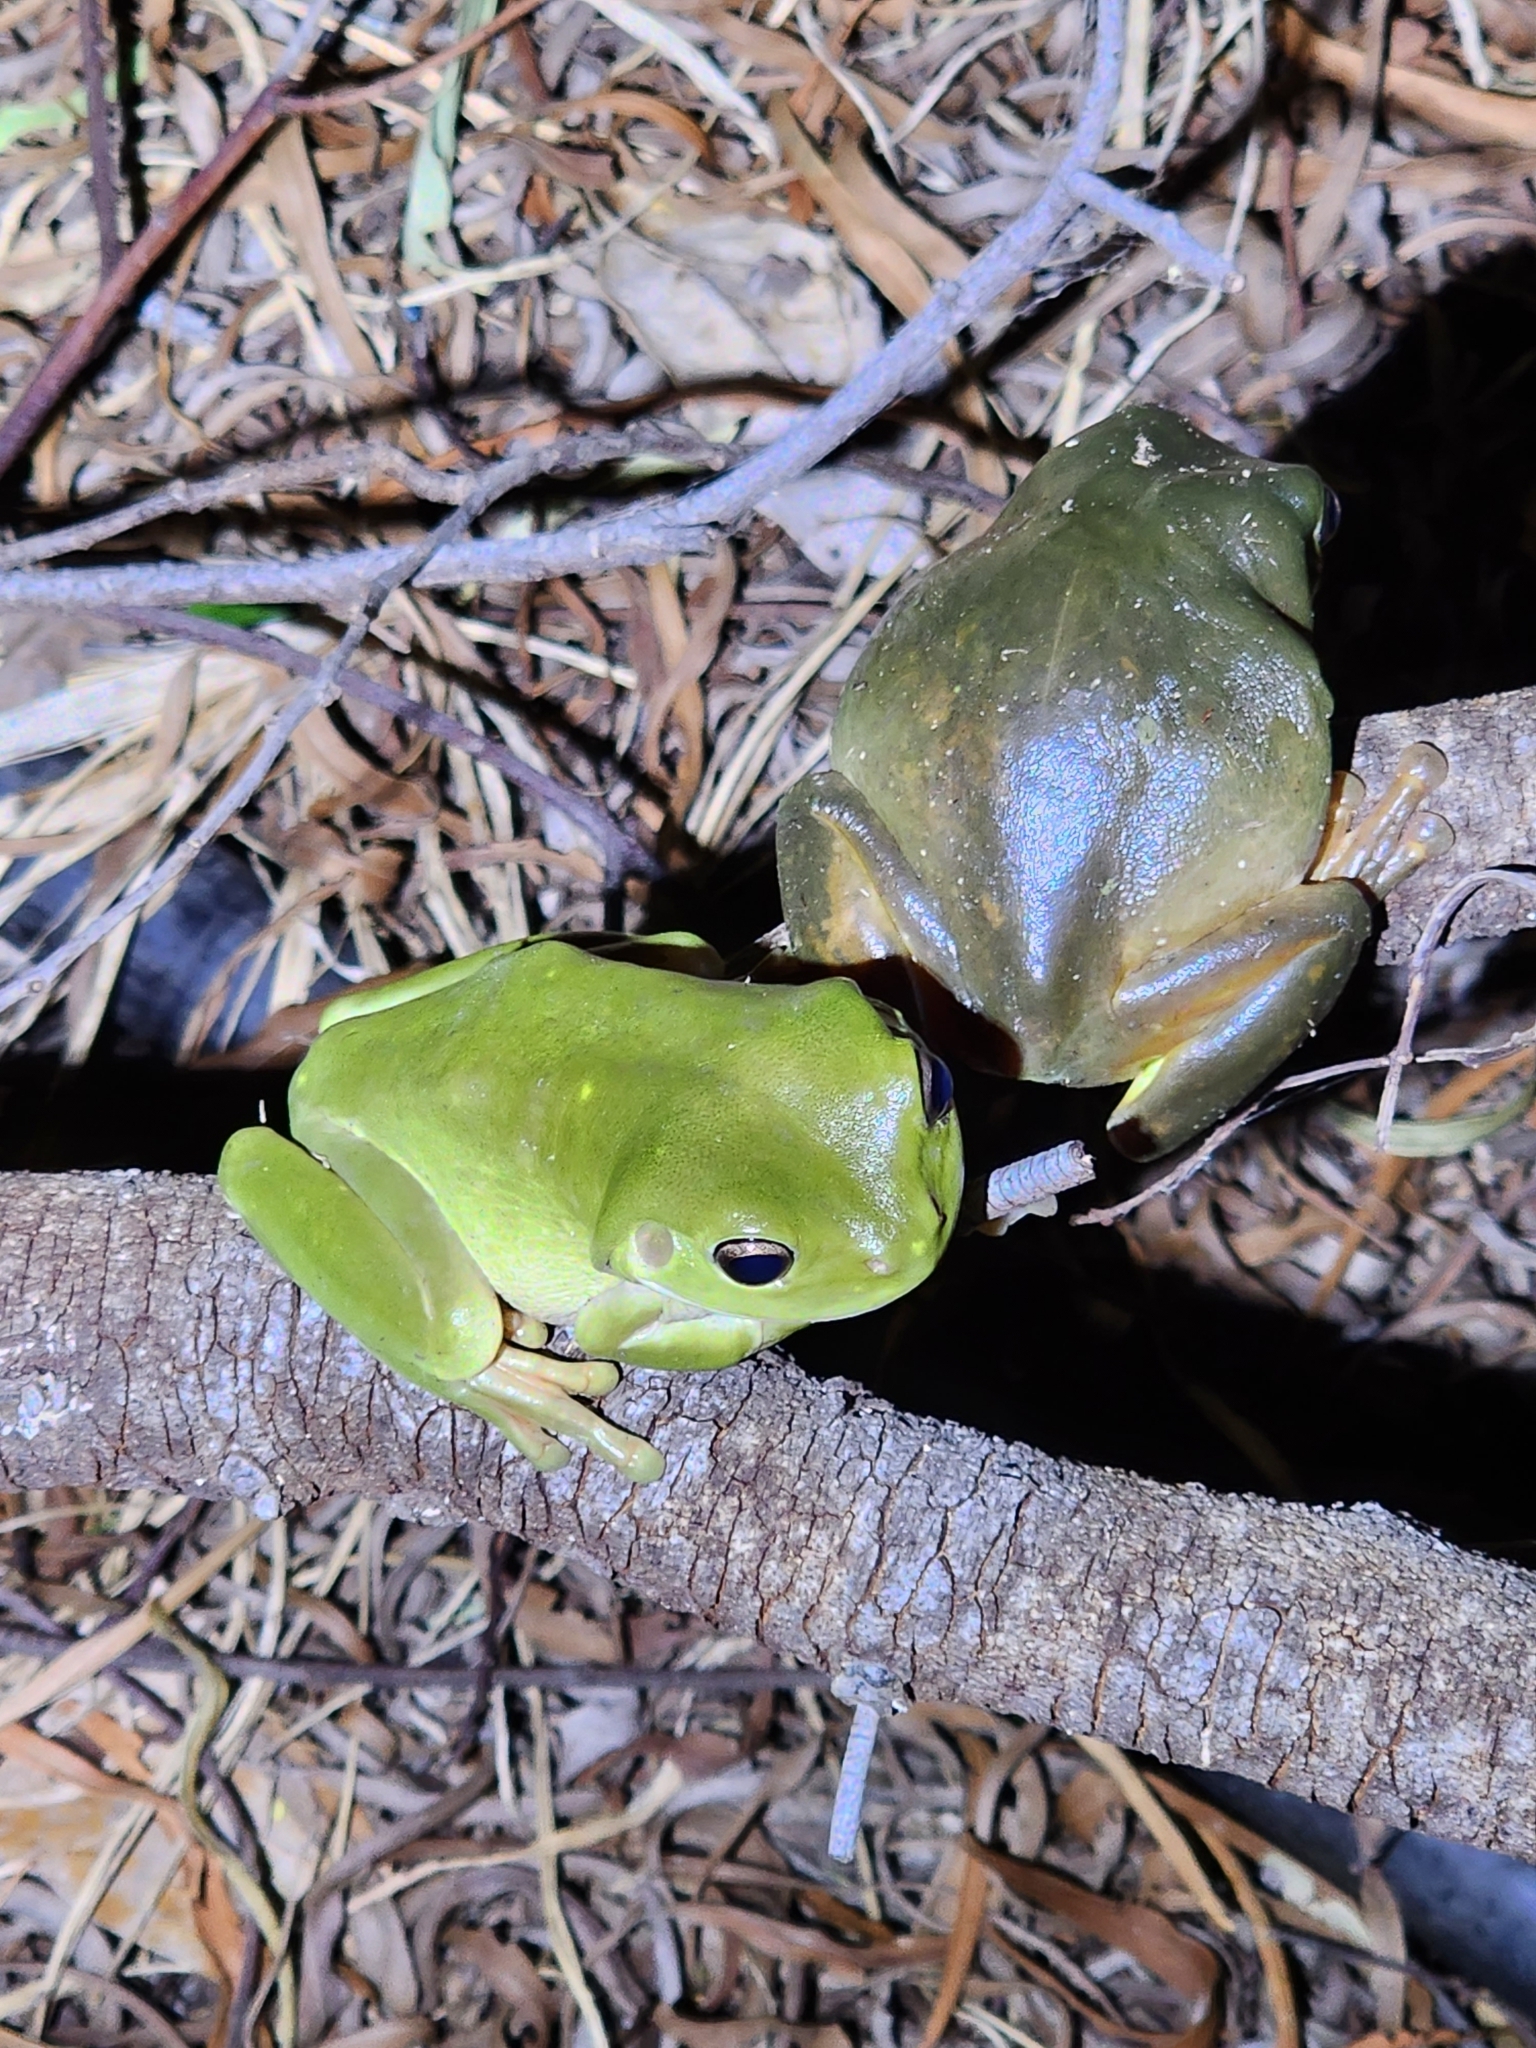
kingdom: Animalia
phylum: Chordata
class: Amphibia
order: Anura
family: Pelodryadidae
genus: Ranoidea
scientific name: Ranoidea caerulea
